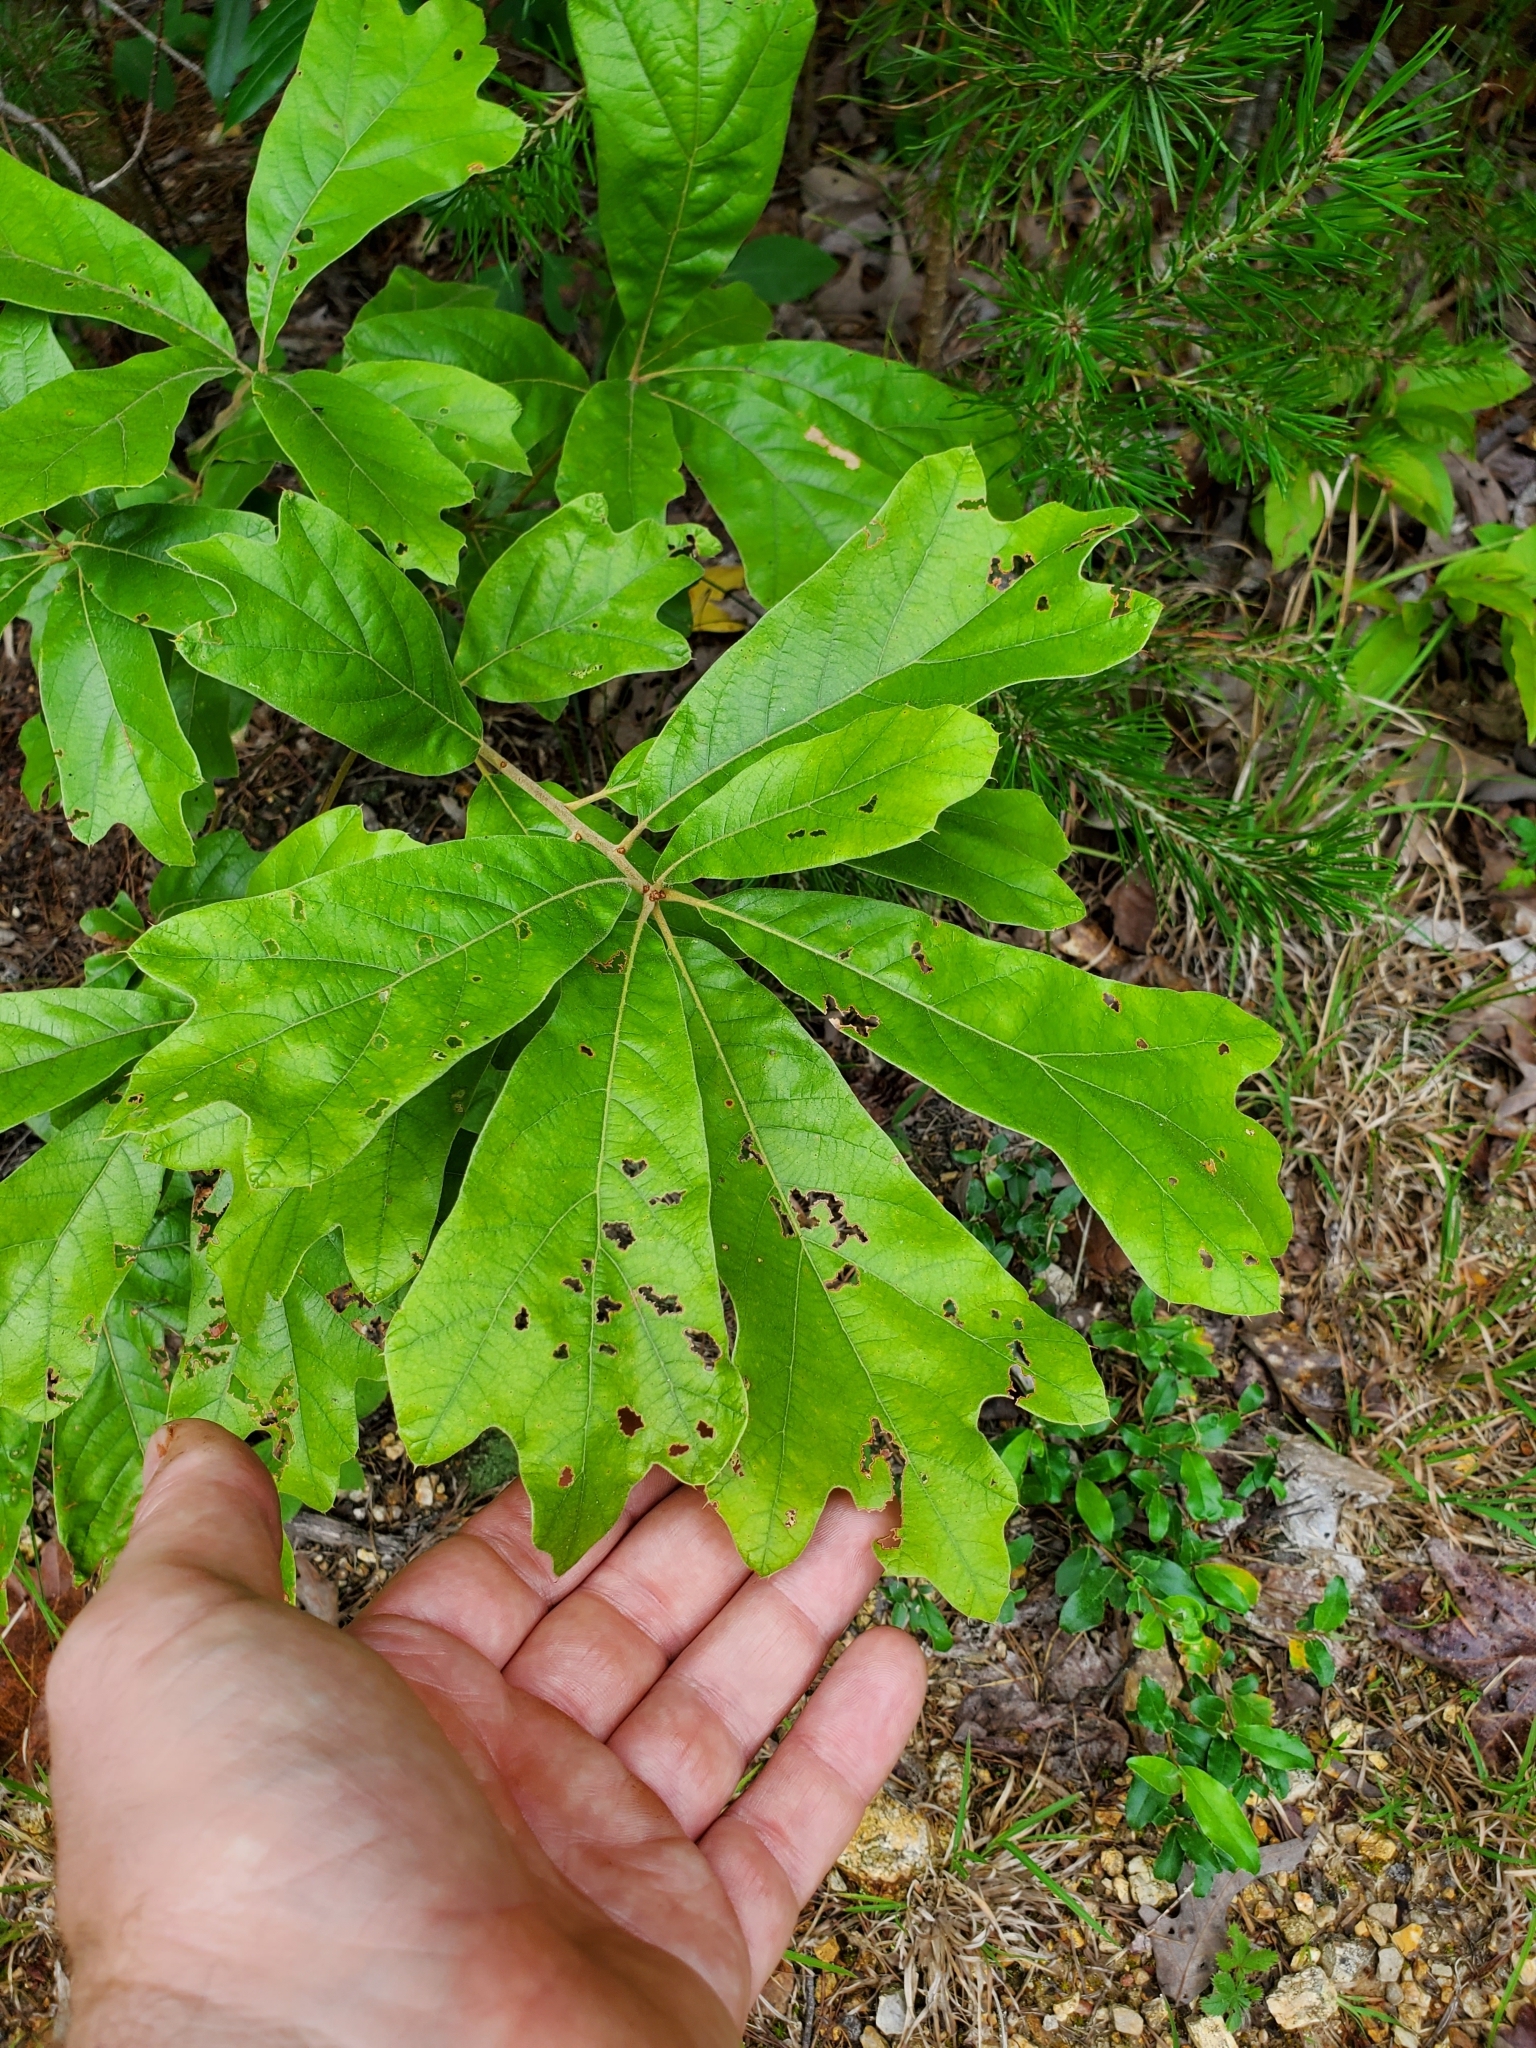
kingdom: Plantae
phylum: Tracheophyta
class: Magnoliopsida
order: Fagales
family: Fagaceae
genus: Quercus
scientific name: Quercus falcata
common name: Southern red oak
